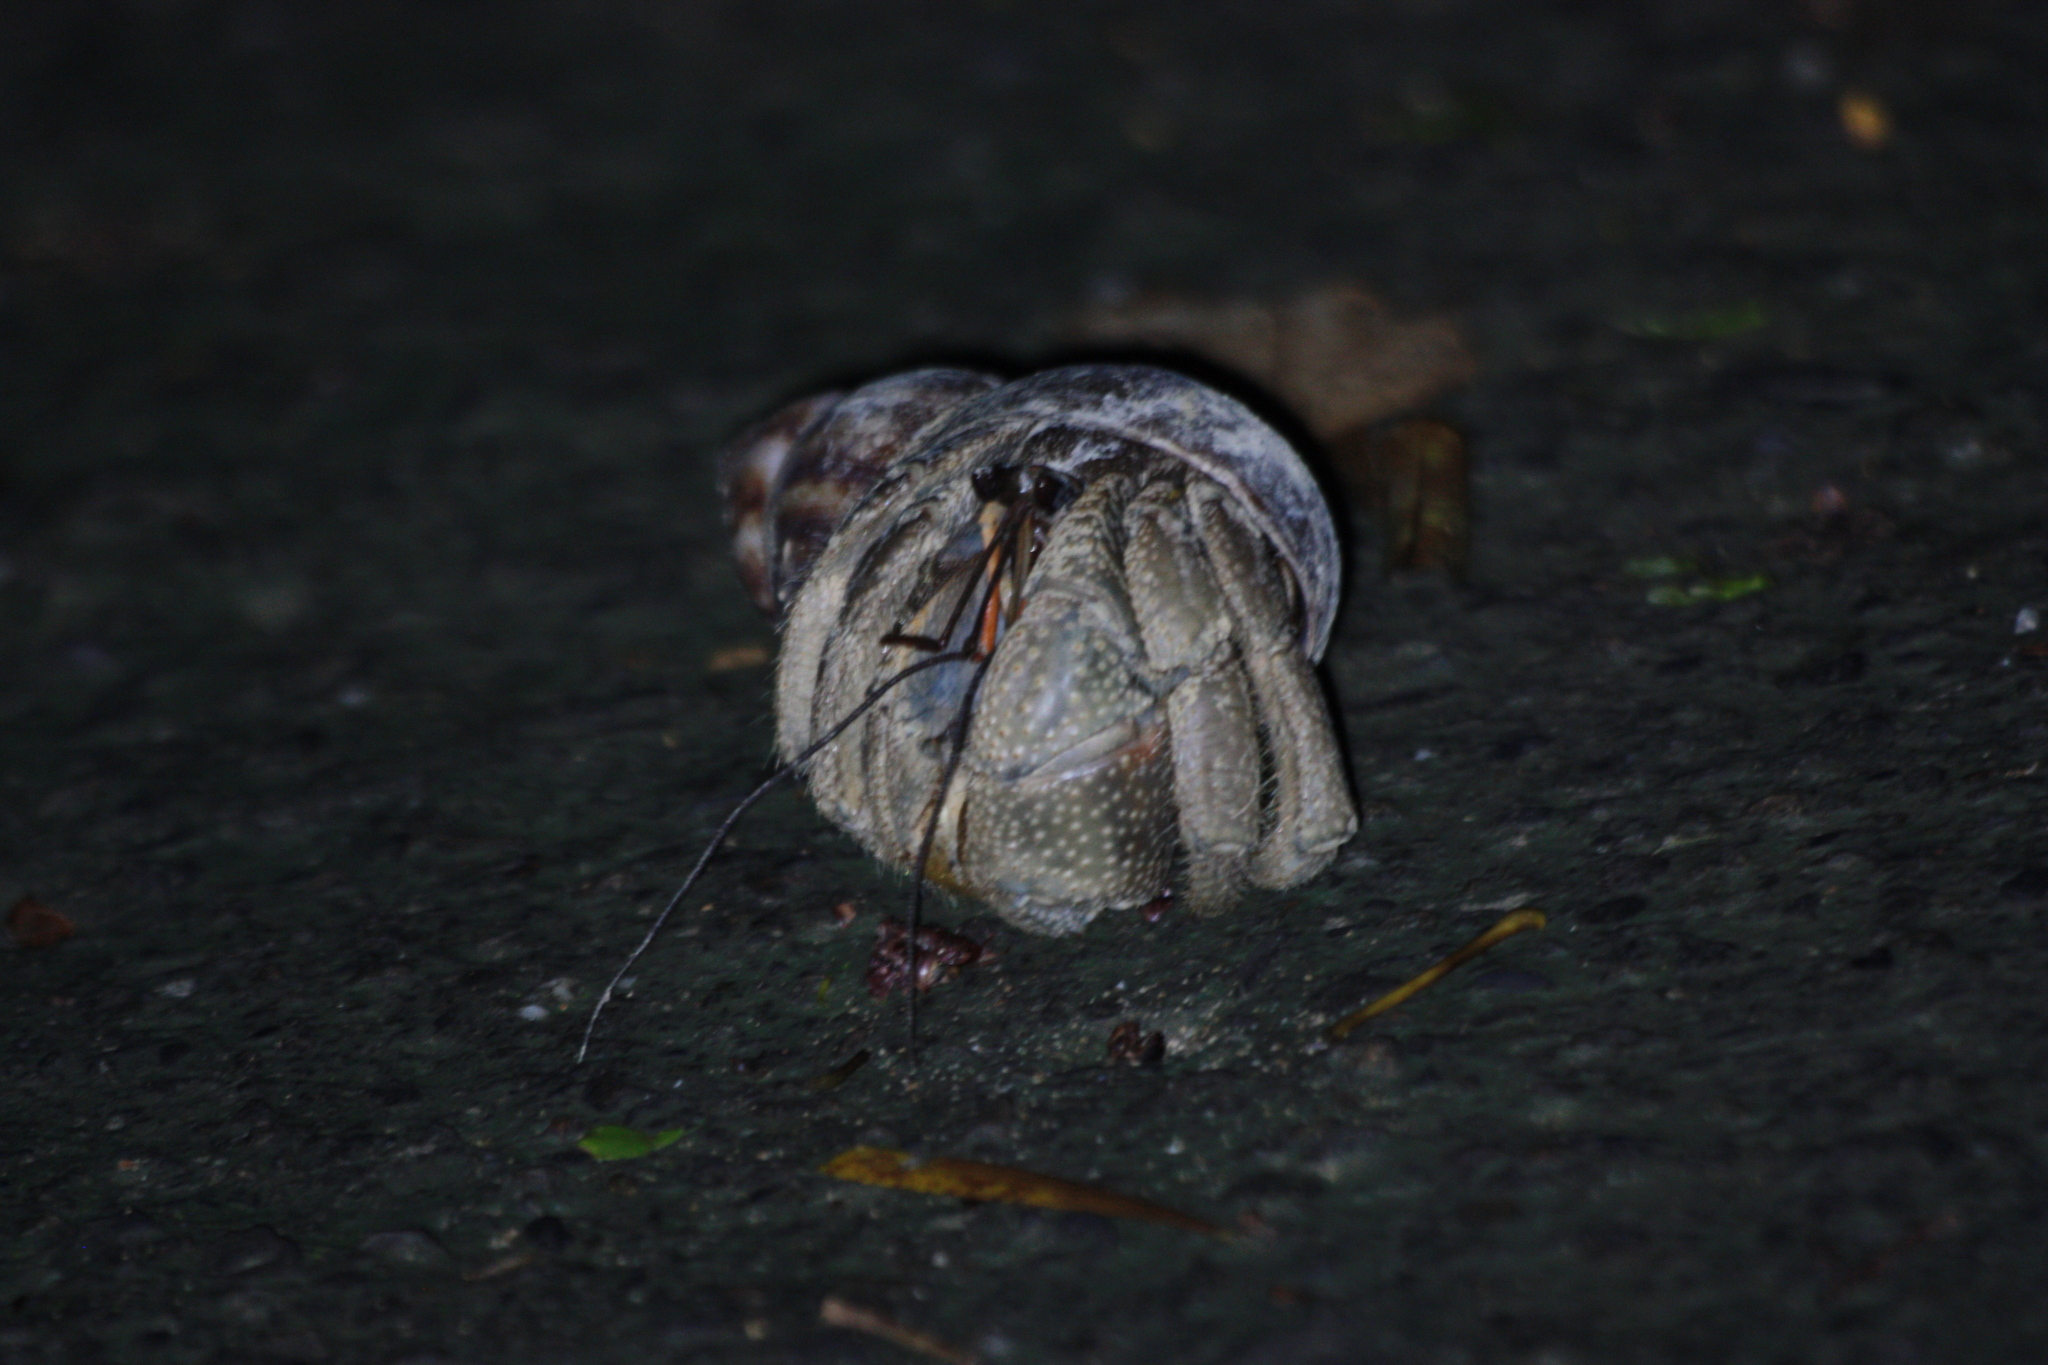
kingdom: Animalia
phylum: Arthropoda
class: Malacostraca
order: Decapoda
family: Coenobitidae
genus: Coenobita
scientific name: Coenobita cavipes
